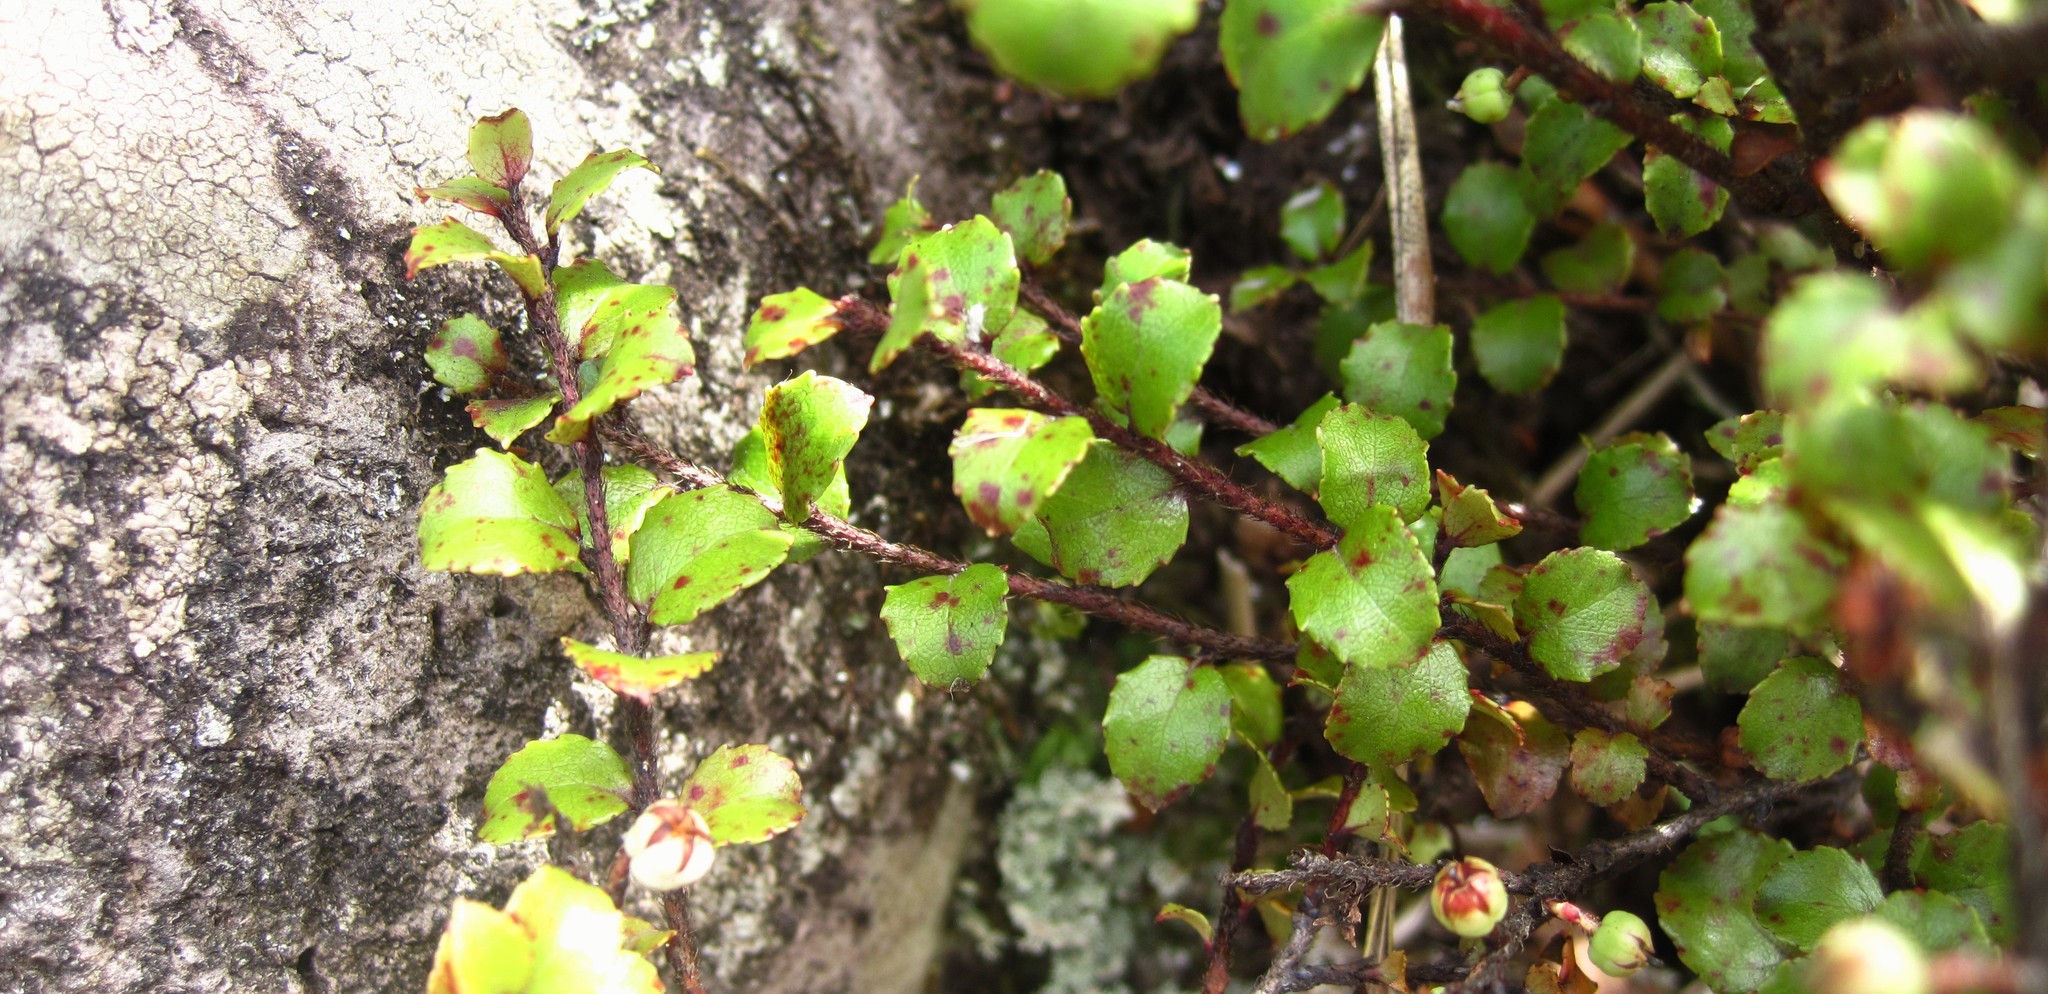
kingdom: Plantae
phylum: Tracheophyta
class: Magnoliopsida
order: Ericales
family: Ericaceae
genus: Gaultheria
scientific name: Gaultheria antipoda
